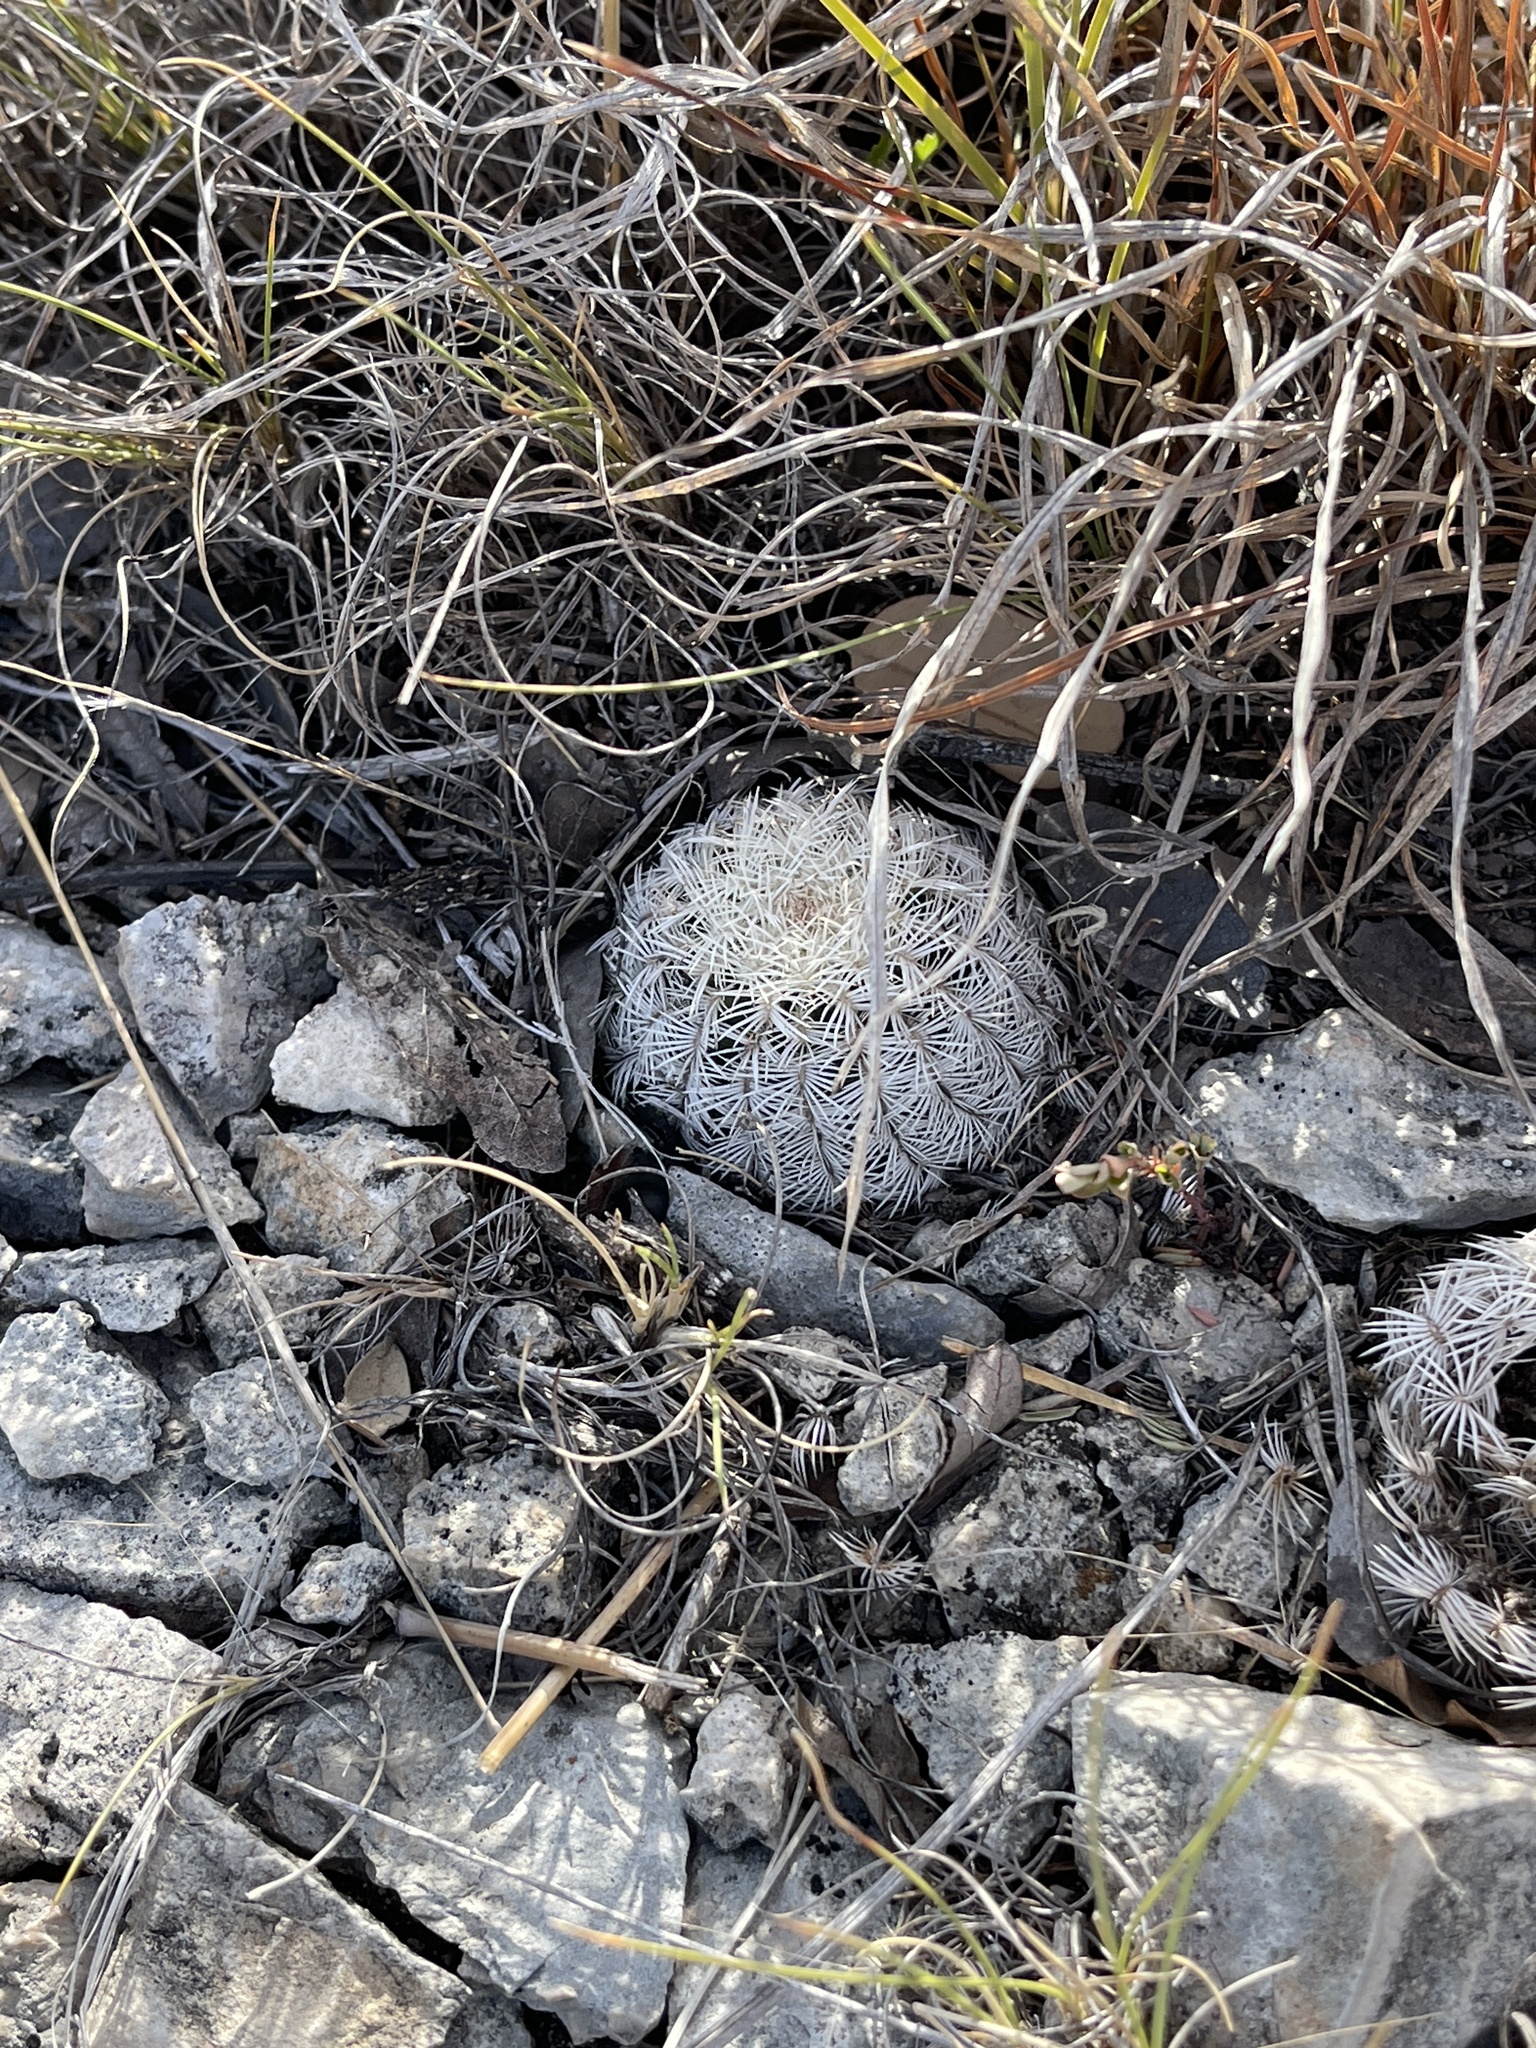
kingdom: Plantae
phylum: Tracheophyta
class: Magnoliopsida
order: Caryophyllales
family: Cactaceae
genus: Echinocereus
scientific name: Echinocereus reichenbachii
